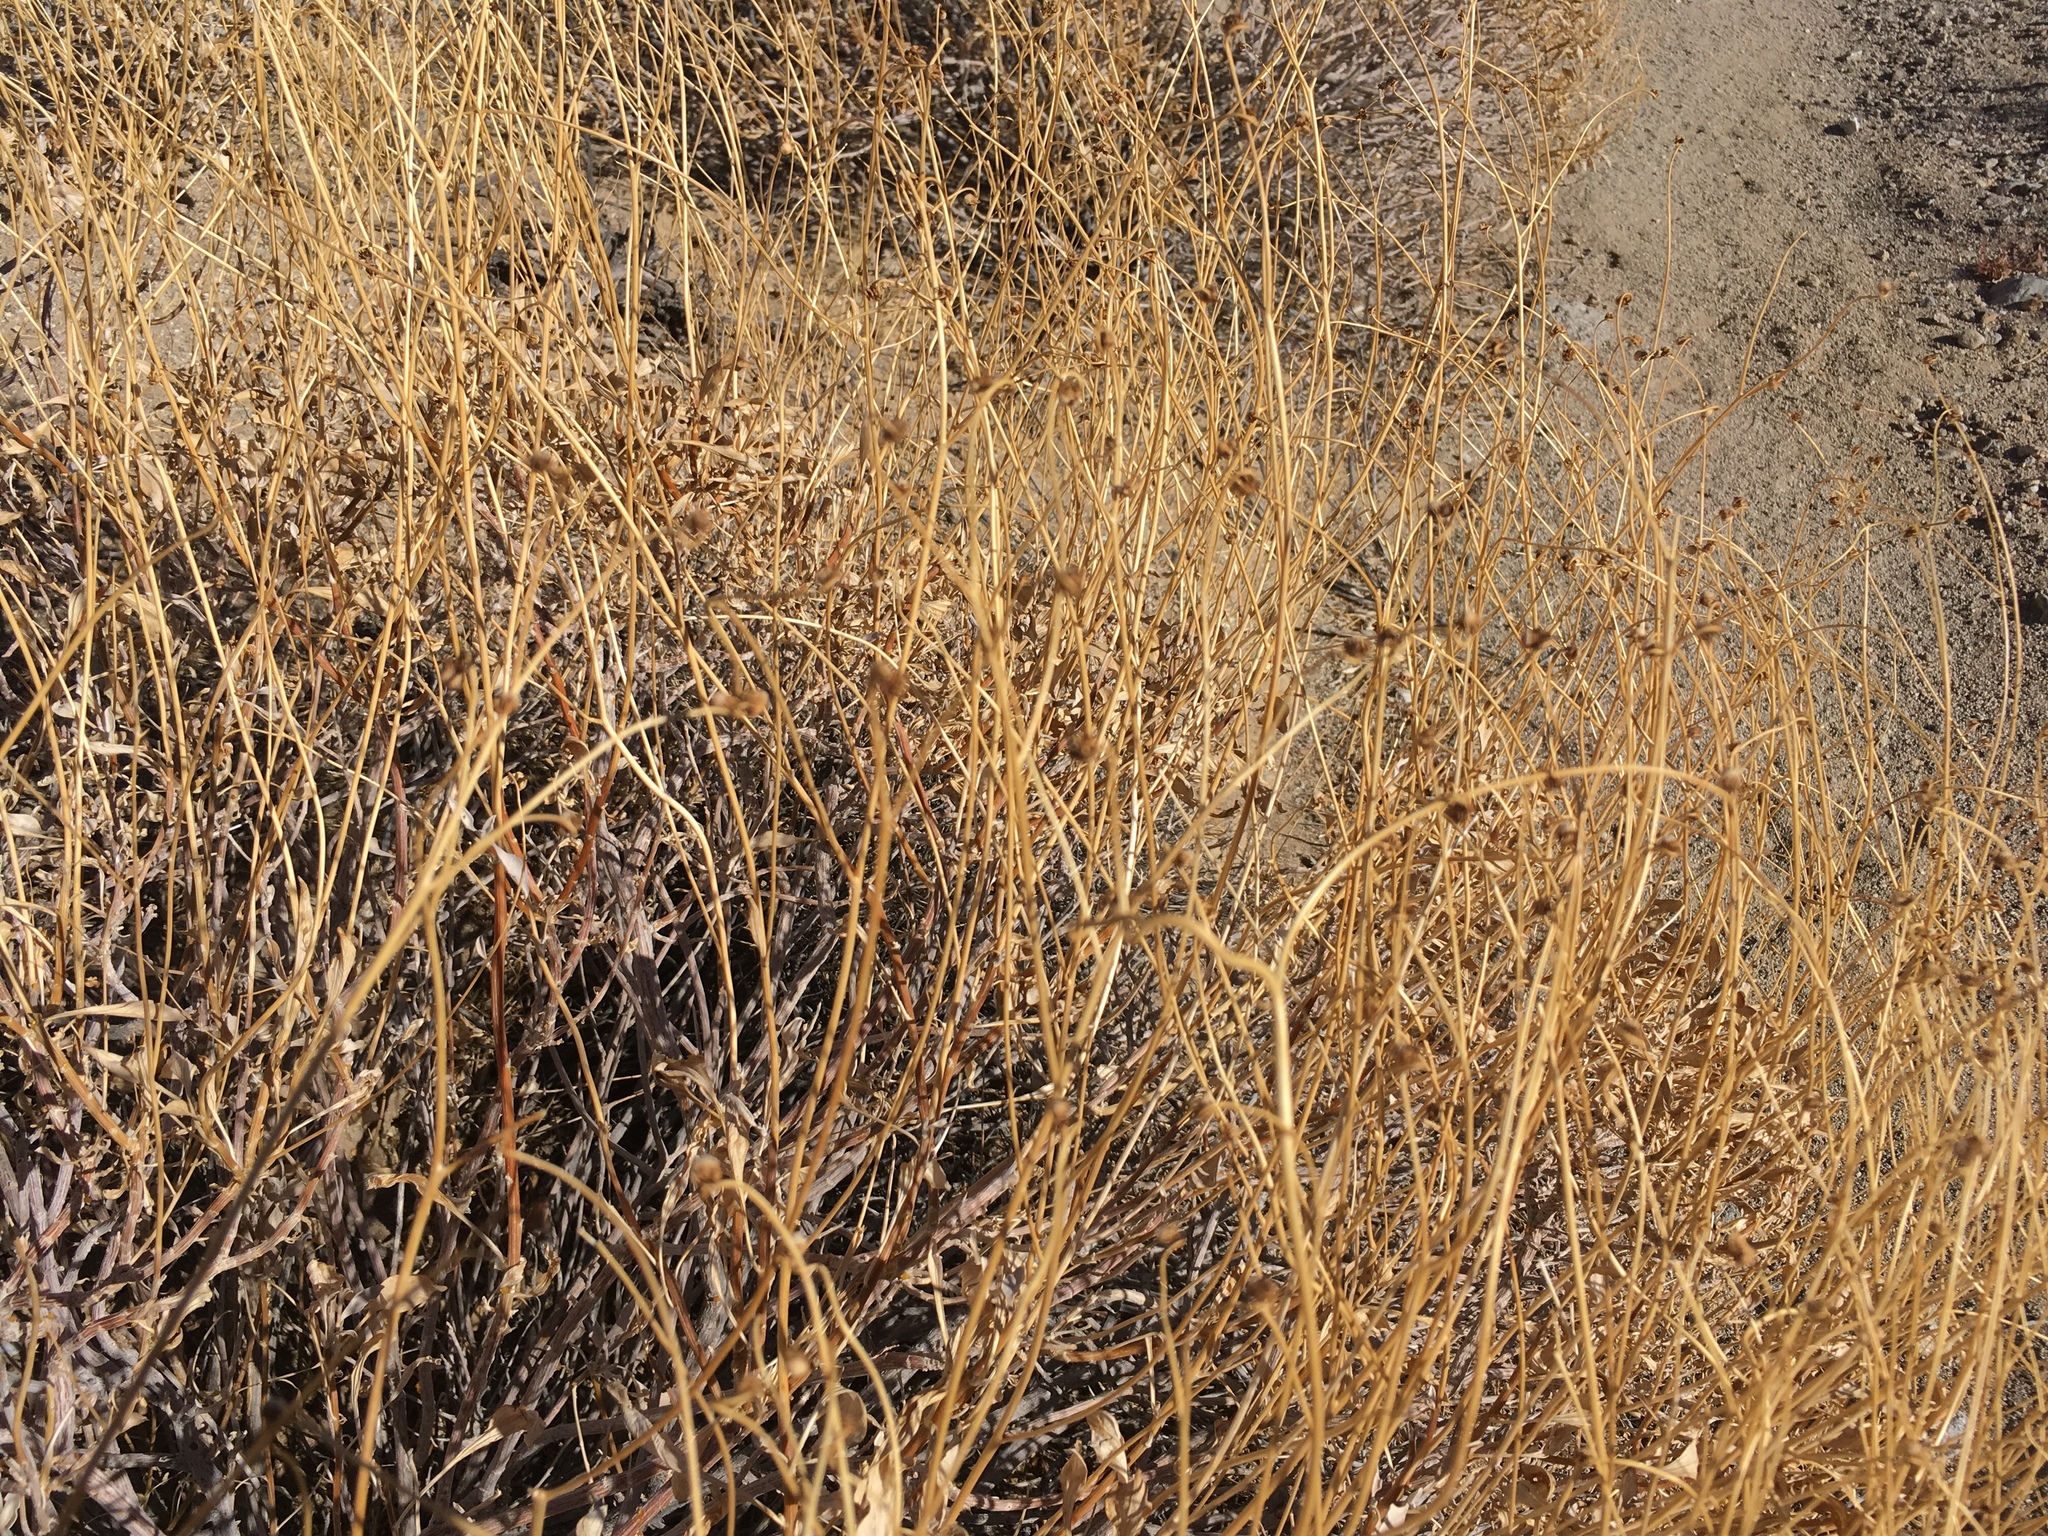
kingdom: Plantae
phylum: Tracheophyta
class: Magnoliopsida
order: Asterales
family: Asteraceae
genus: Encelia
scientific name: Encelia farinosa
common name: Brittlebush
